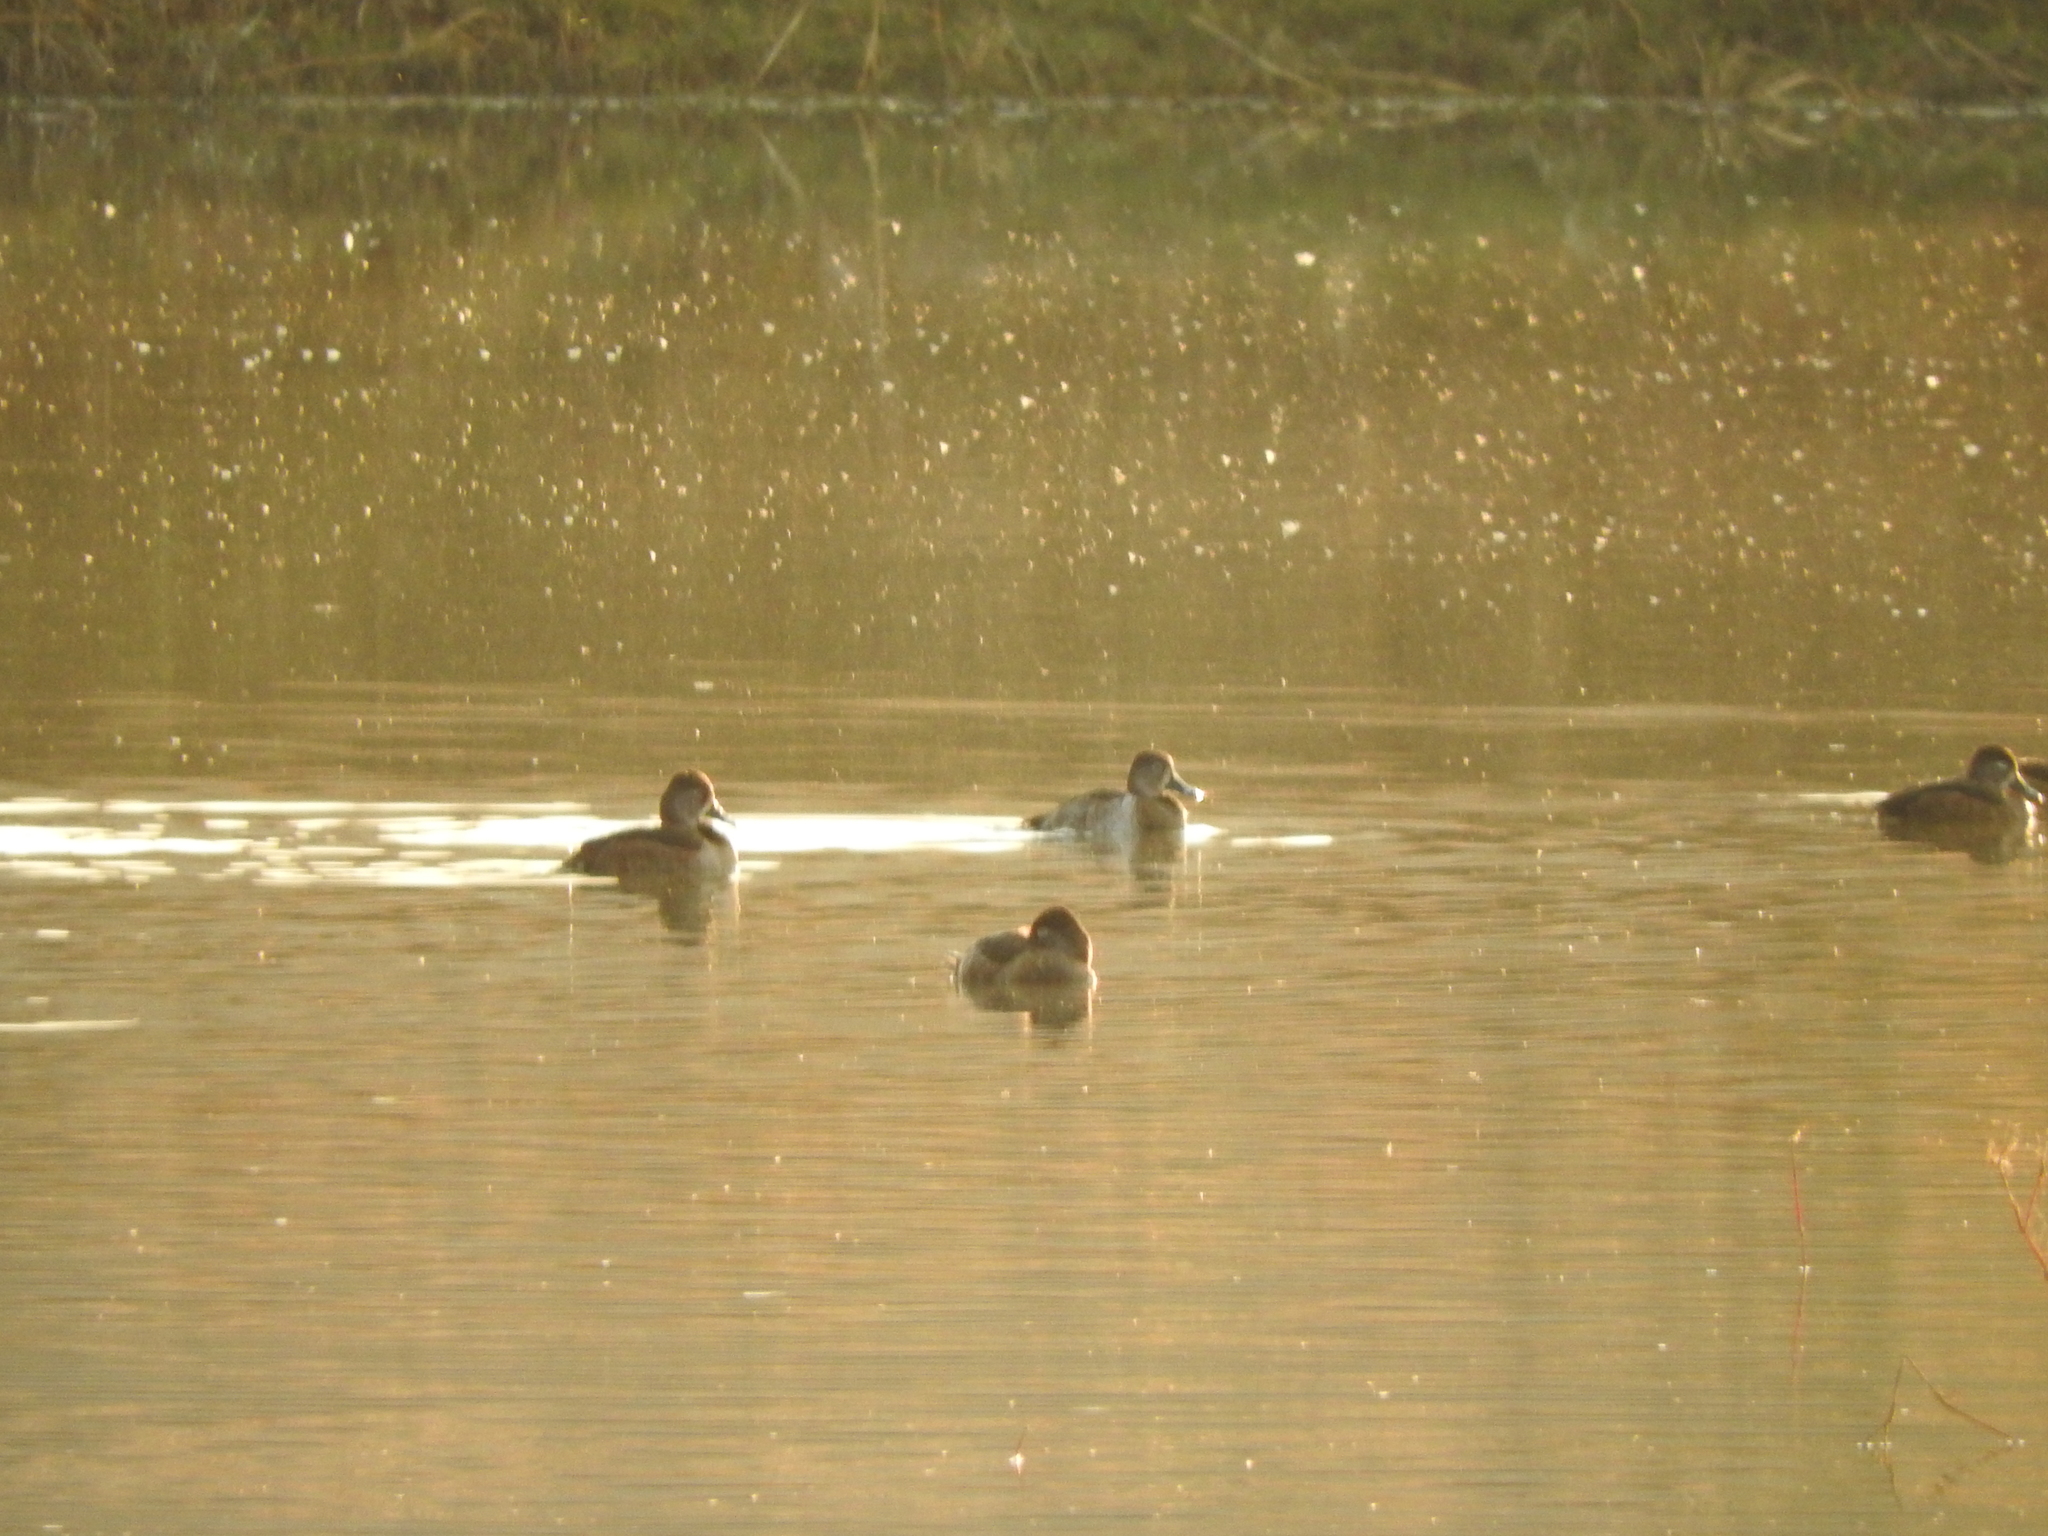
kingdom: Animalia
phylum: Chordata
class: Aves
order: Anseriformes
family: Anatidae
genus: Aythya
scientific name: Aythya collaris
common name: Ring-necked duck
